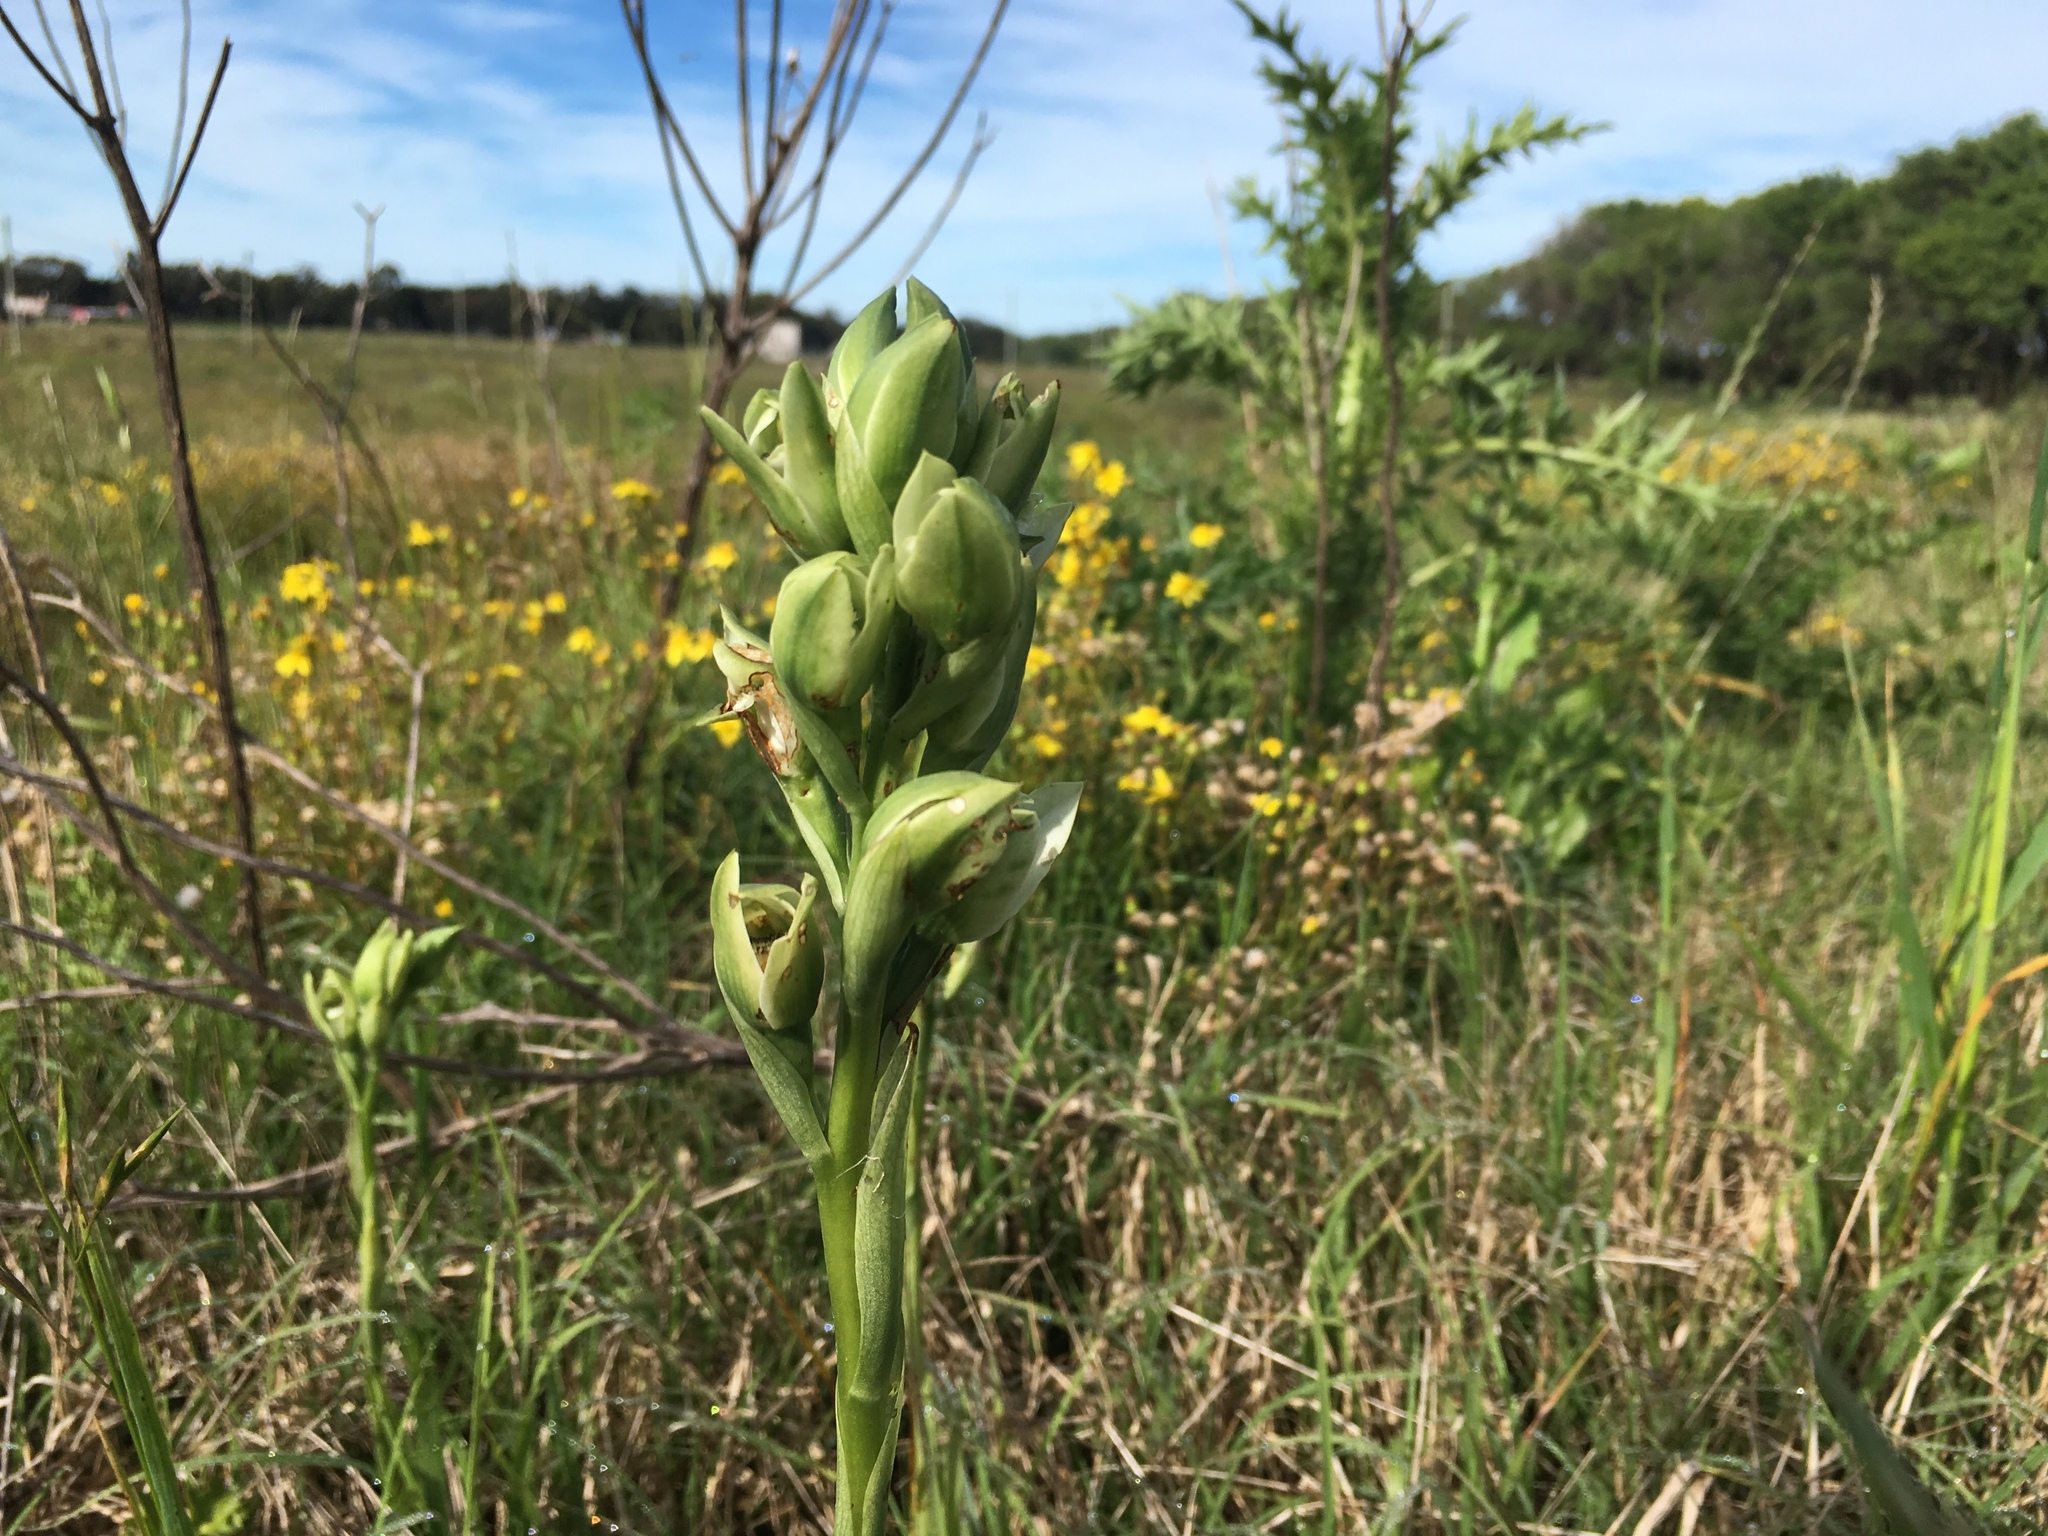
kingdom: Plantae
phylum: Tracheophyta
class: Liliopsida
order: Asparagales
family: Orchidaceae
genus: Chloraea
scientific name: Chloraea membranacea
